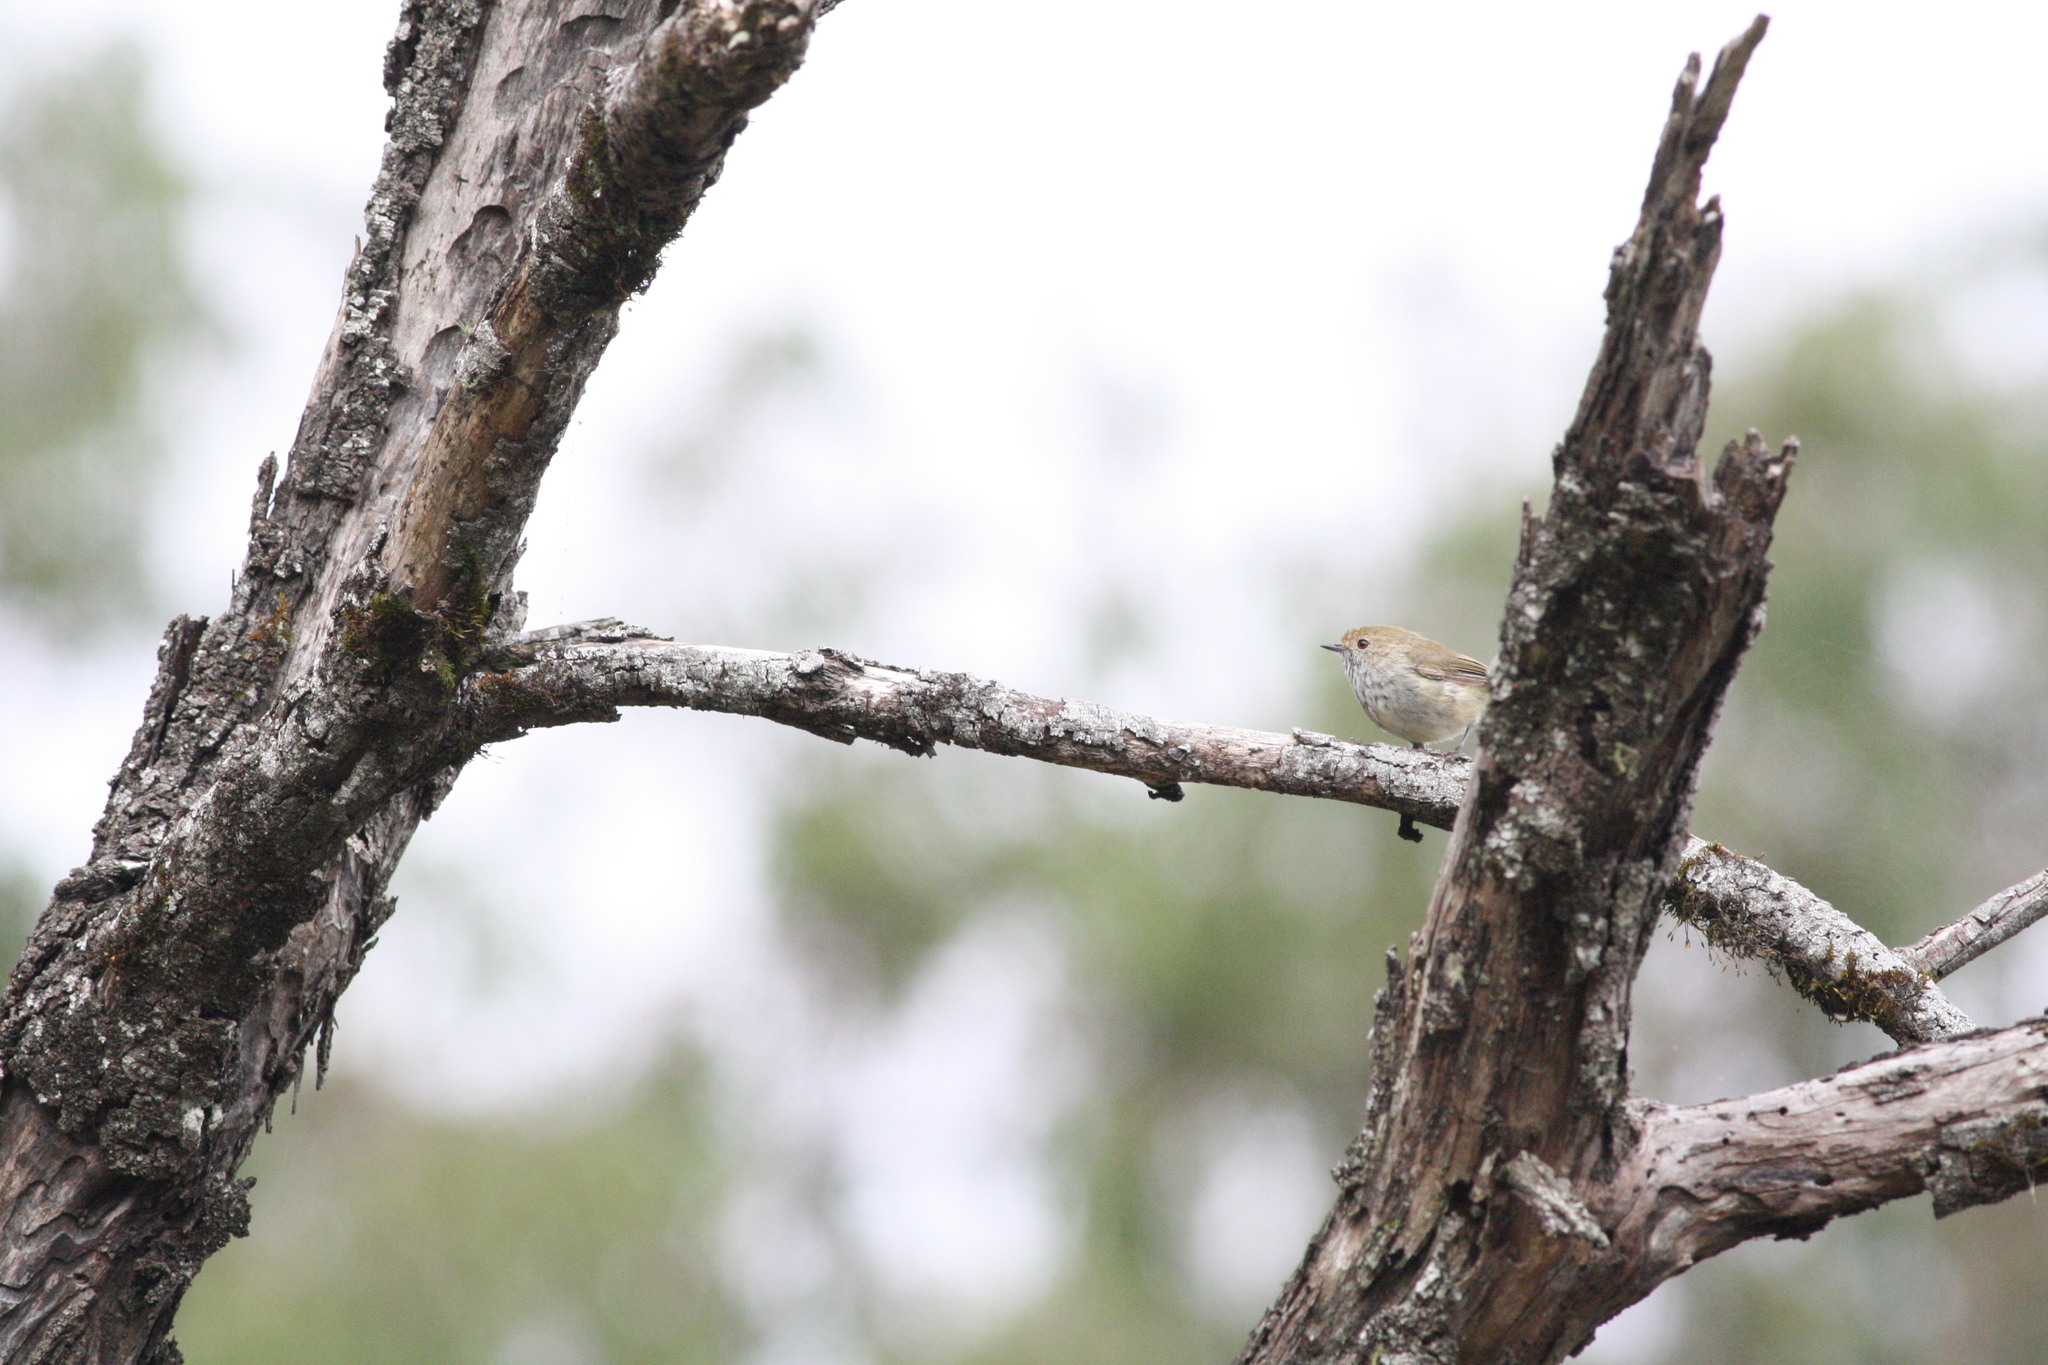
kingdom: Animalia
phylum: Chordata
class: Aves
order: Passeriformes
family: Acanthizidae
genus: Acanthiza
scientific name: Acanthiza pusilla
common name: Brown thornbill
